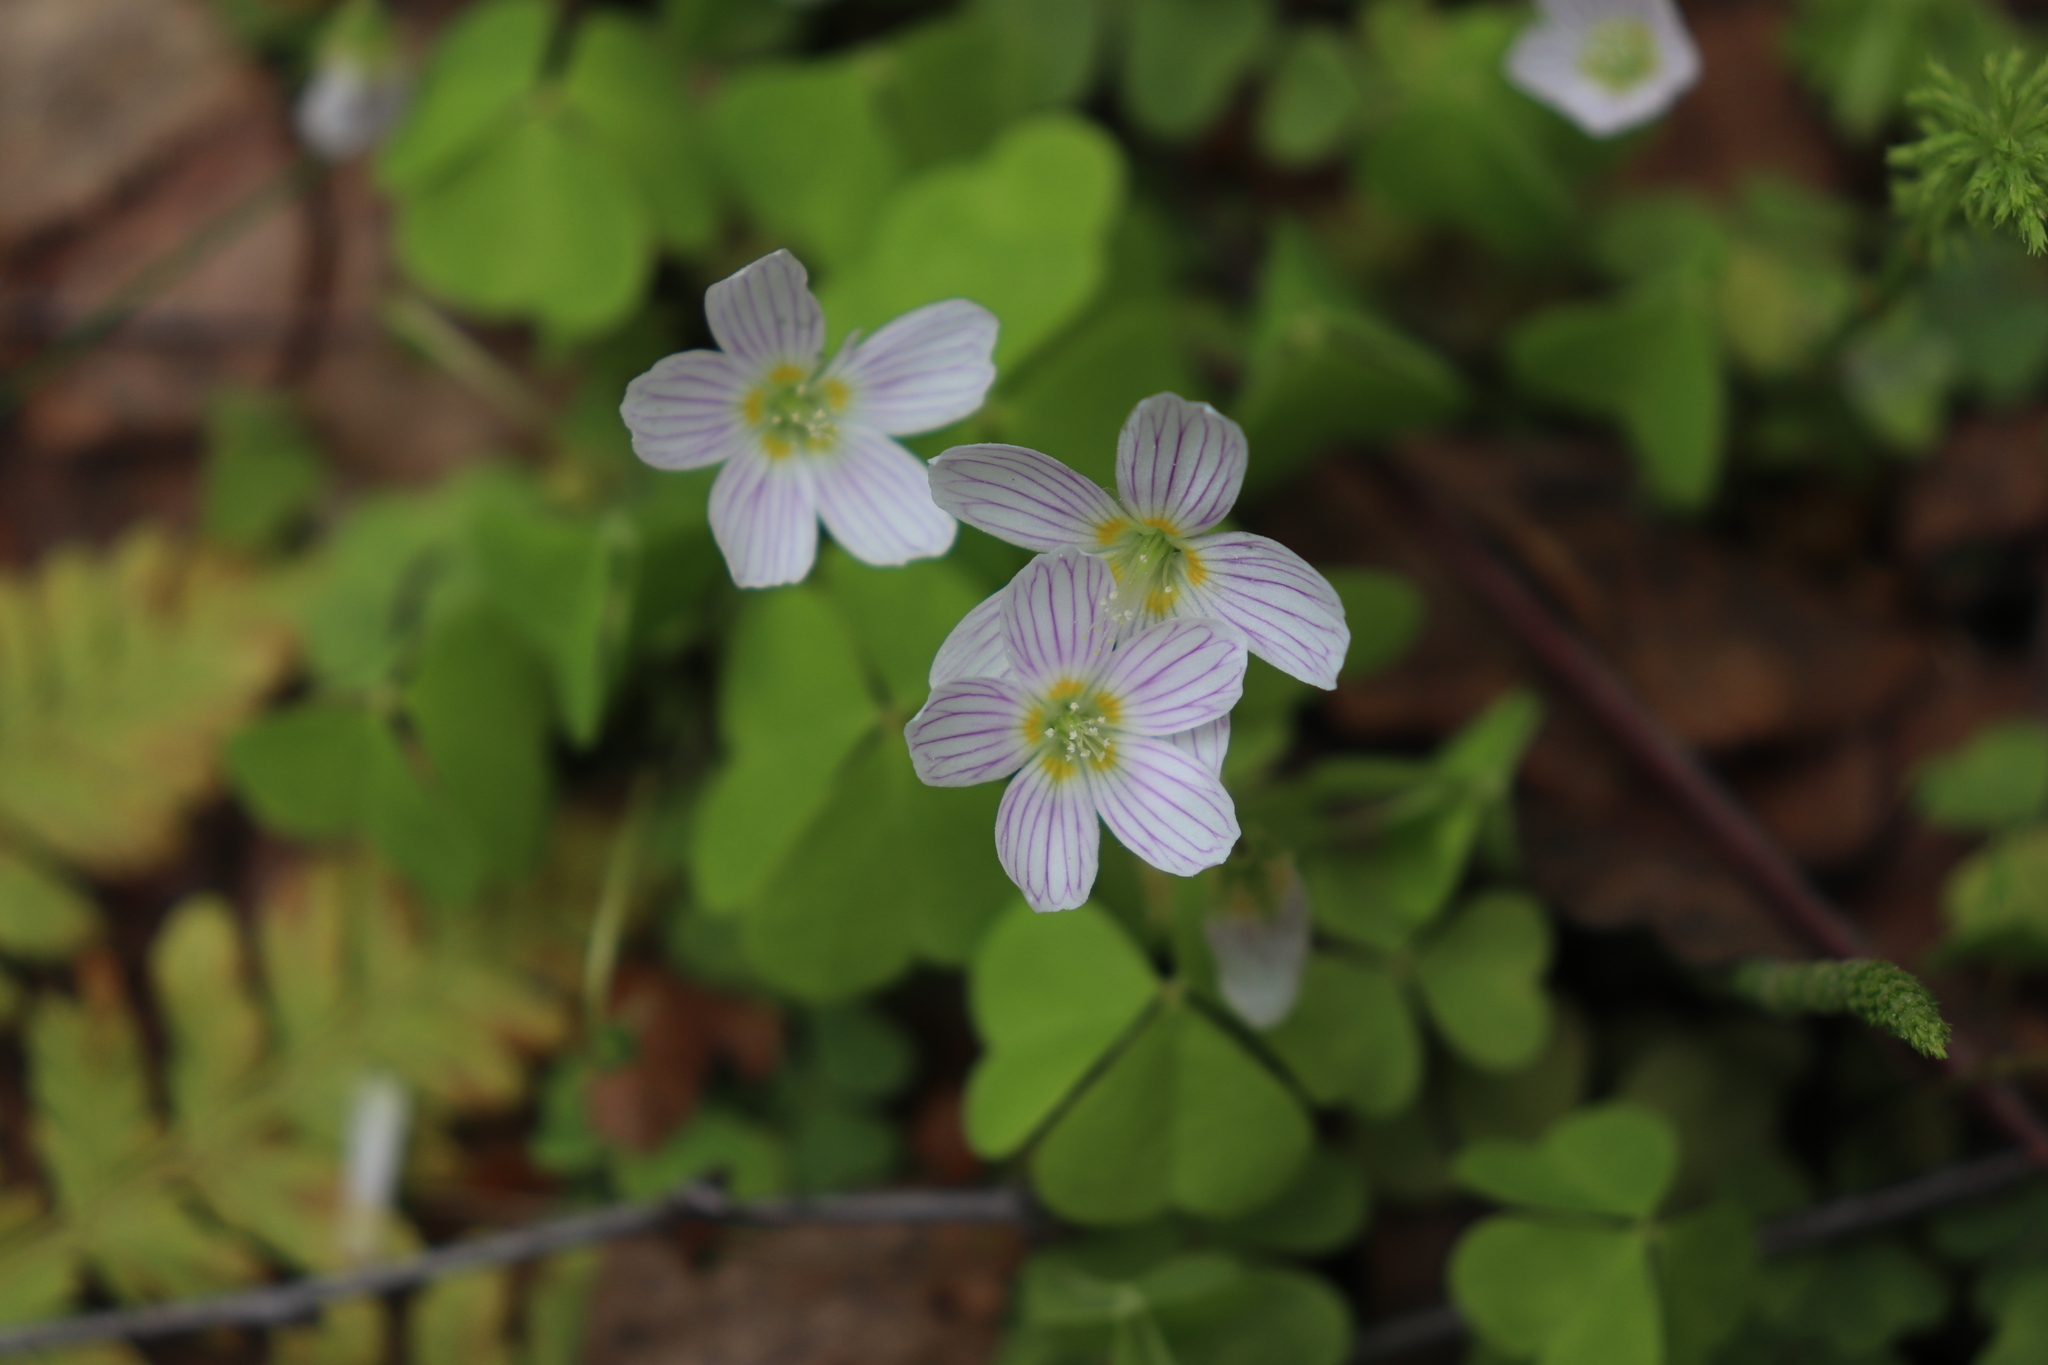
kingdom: Plantae
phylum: Tracheophyta
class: Magnoliopsida
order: Oxalidales
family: Oxalidaceae
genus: Oxalis
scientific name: Oxalis acetosella
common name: Wood-sorrel
